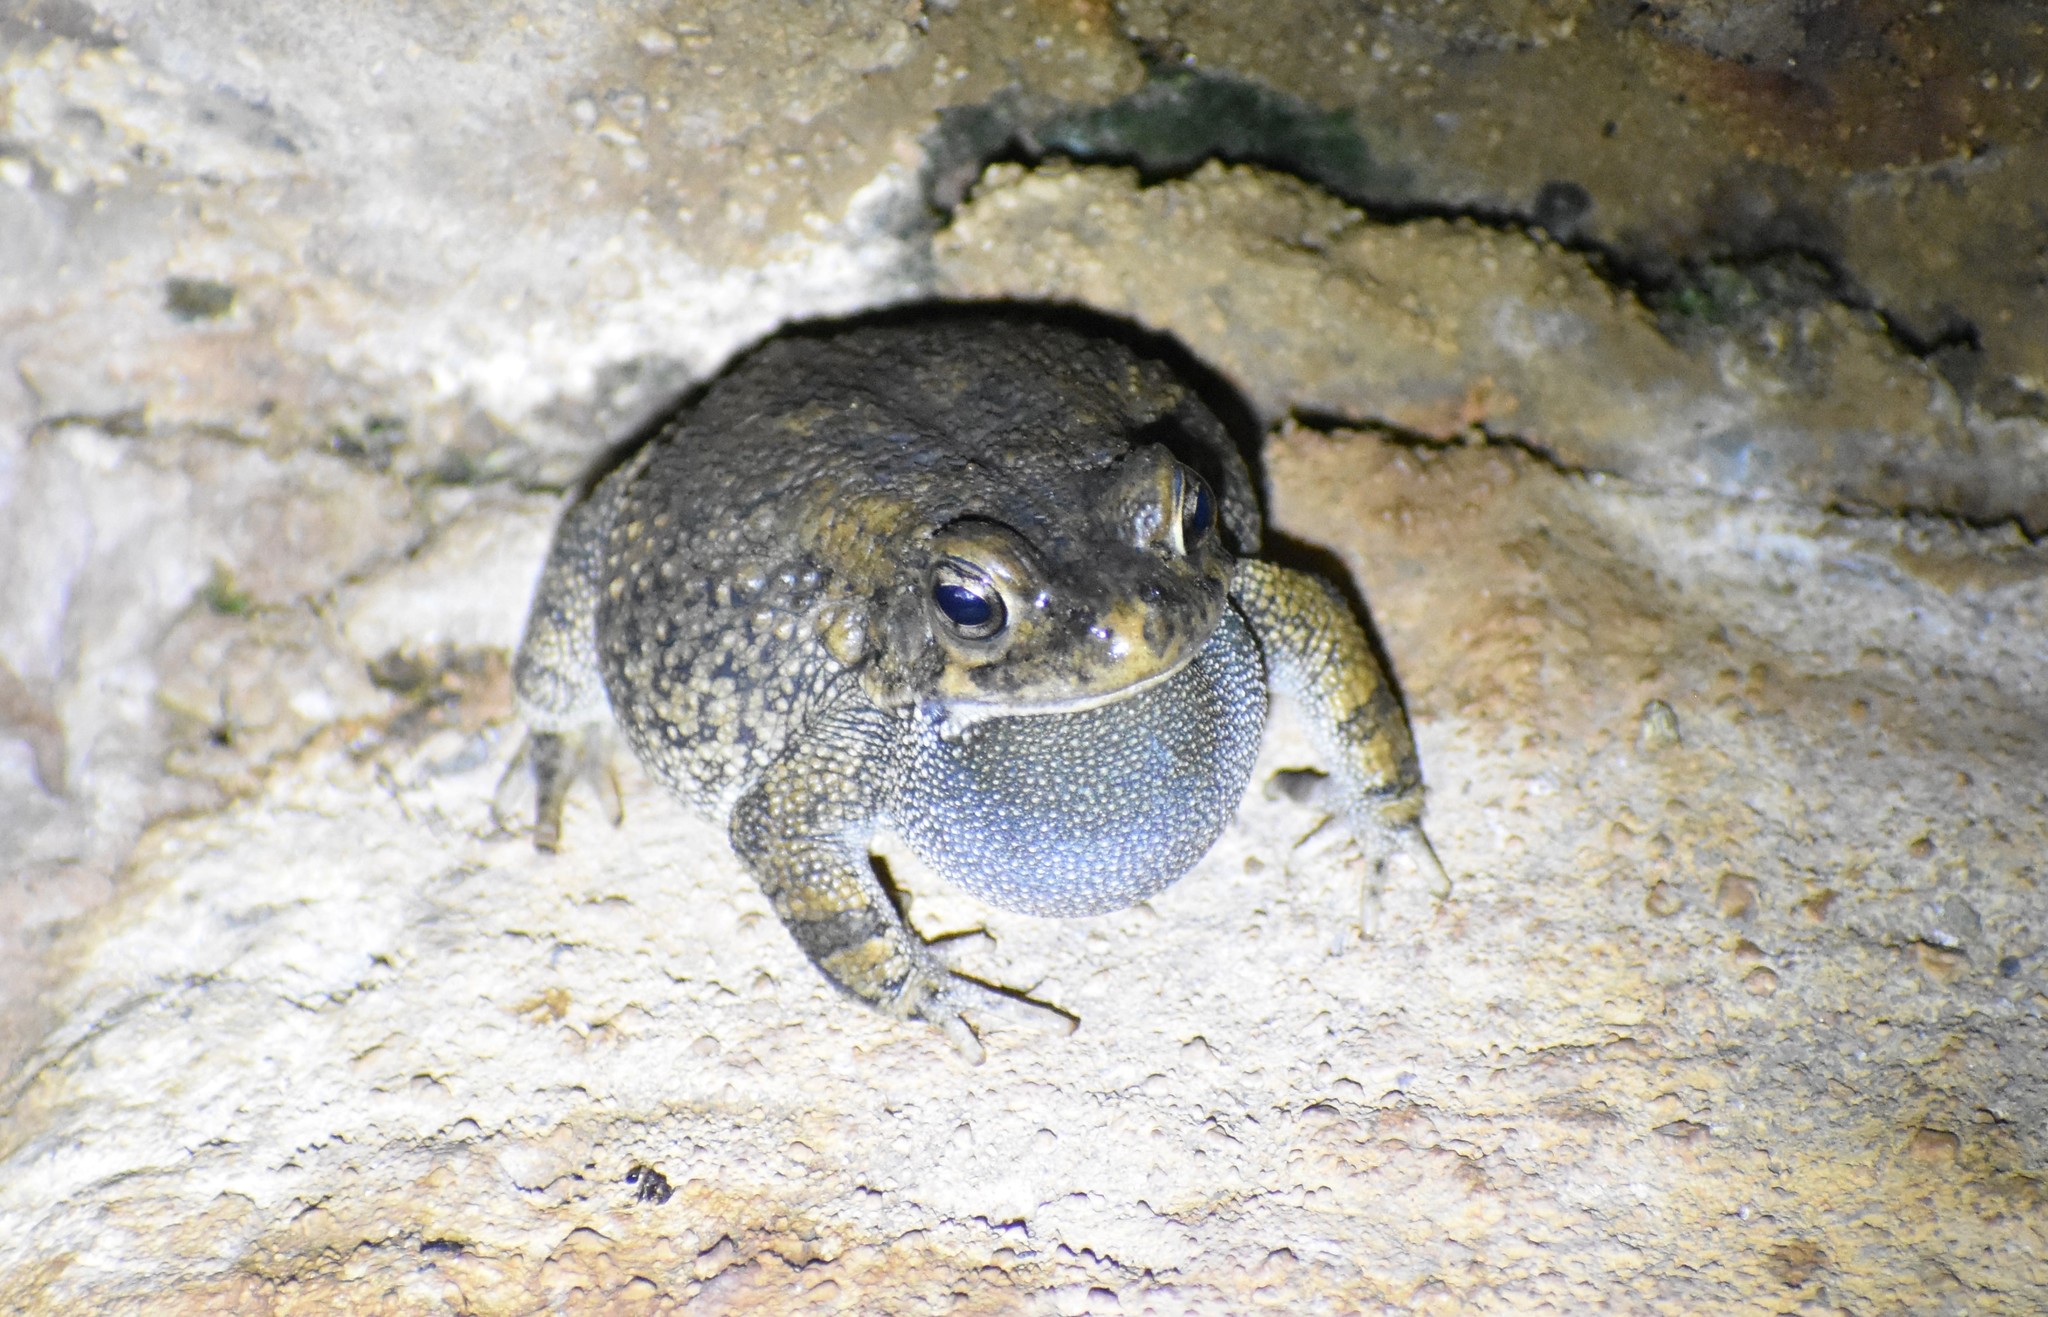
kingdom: Animalia
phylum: Chordata
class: Amphibia
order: Anura
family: Bufonidae
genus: Sclerophrys
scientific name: Sclerophrys pusilla
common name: Merten's striped toad
